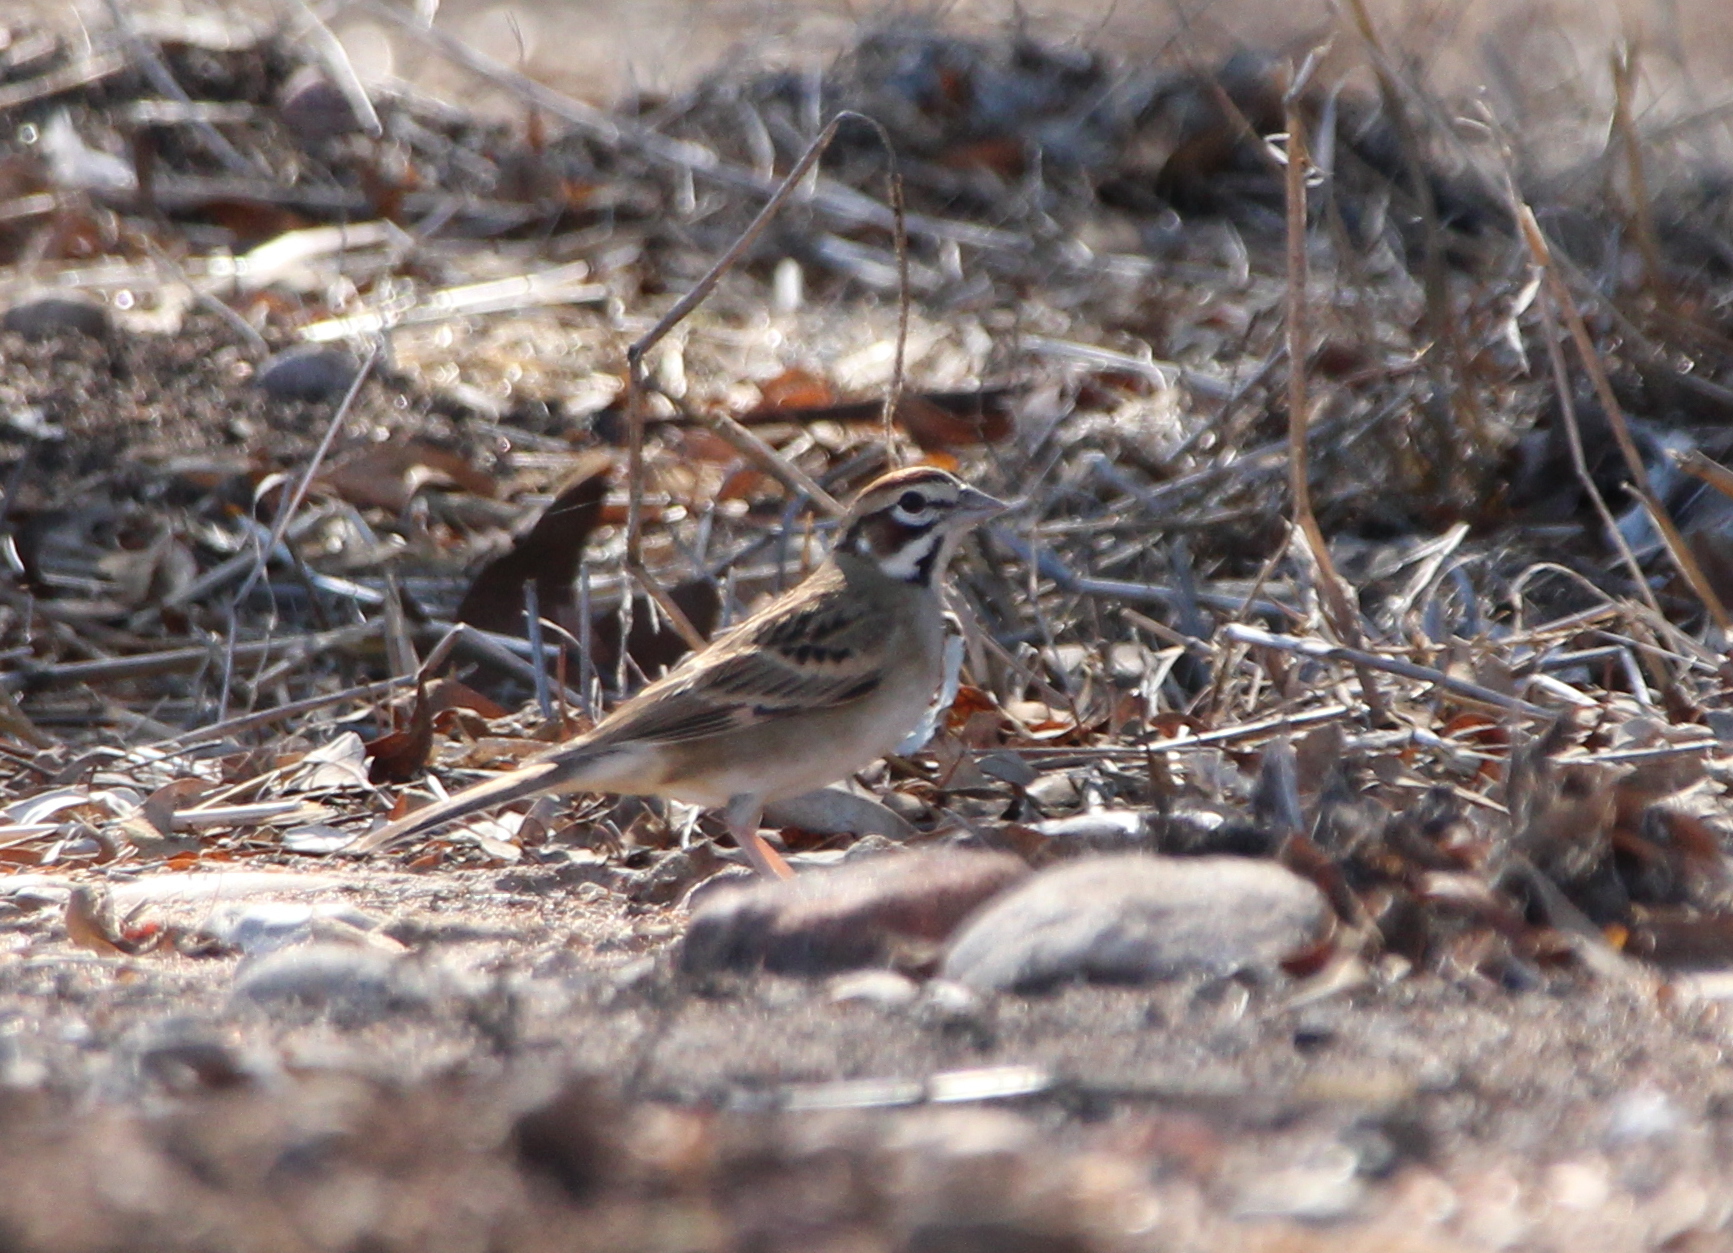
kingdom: Animalia
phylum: Chordata
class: Aves
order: Passeriformes
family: Passerellidae
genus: Chondestes
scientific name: Chondestes grammacus
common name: Lark sparrow
